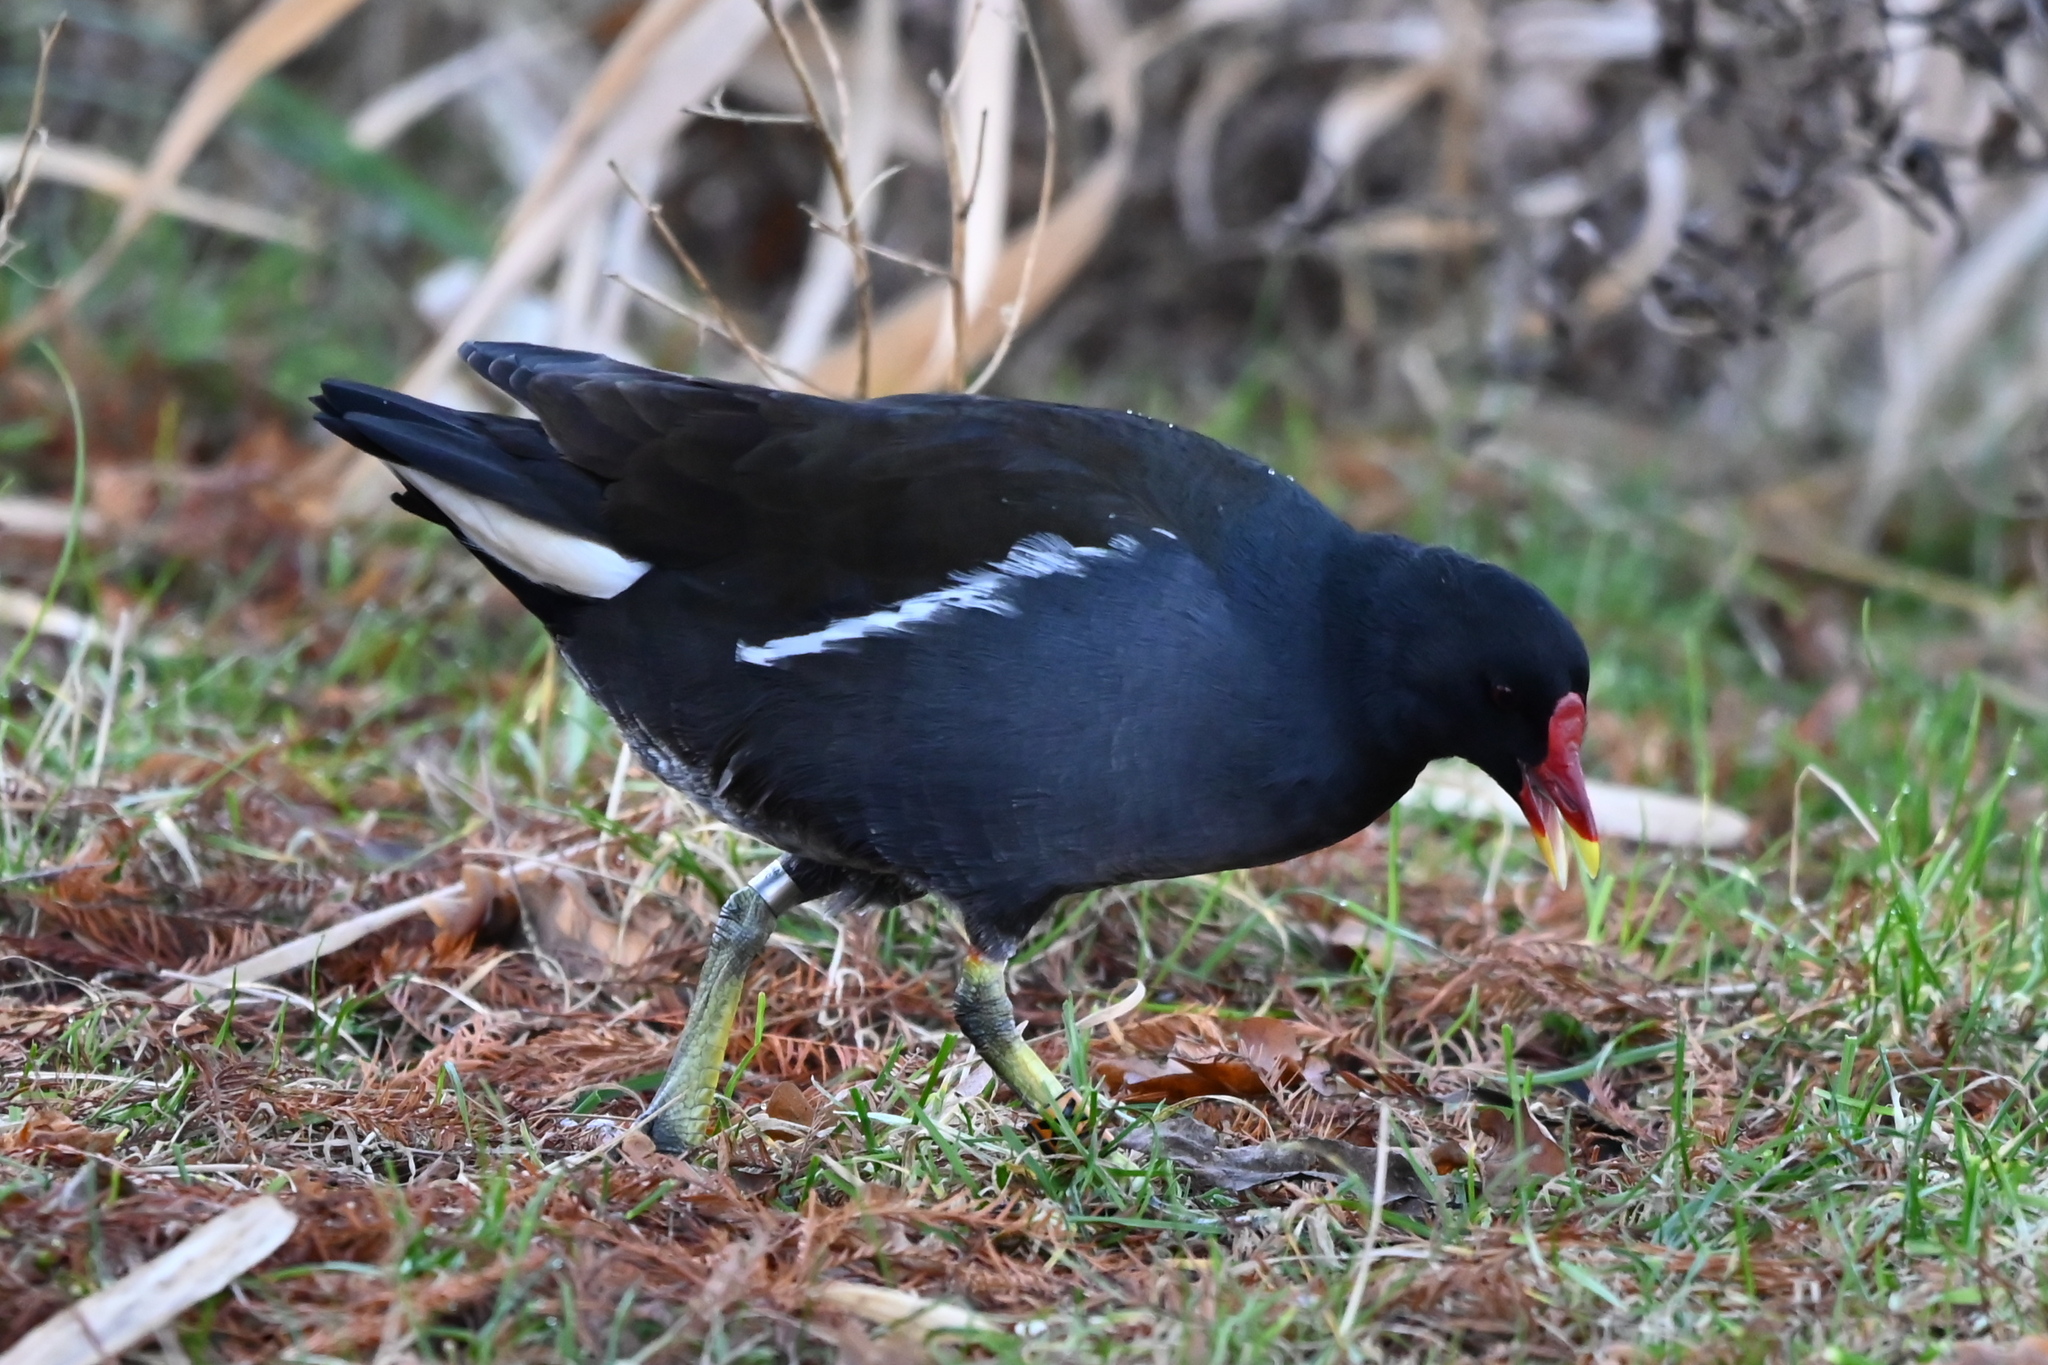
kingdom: Animalia
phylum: Chordata
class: Aves
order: Gruiformes
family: Rallidae
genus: Gallinula
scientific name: Gallinula chloropus
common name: Common moorhen
